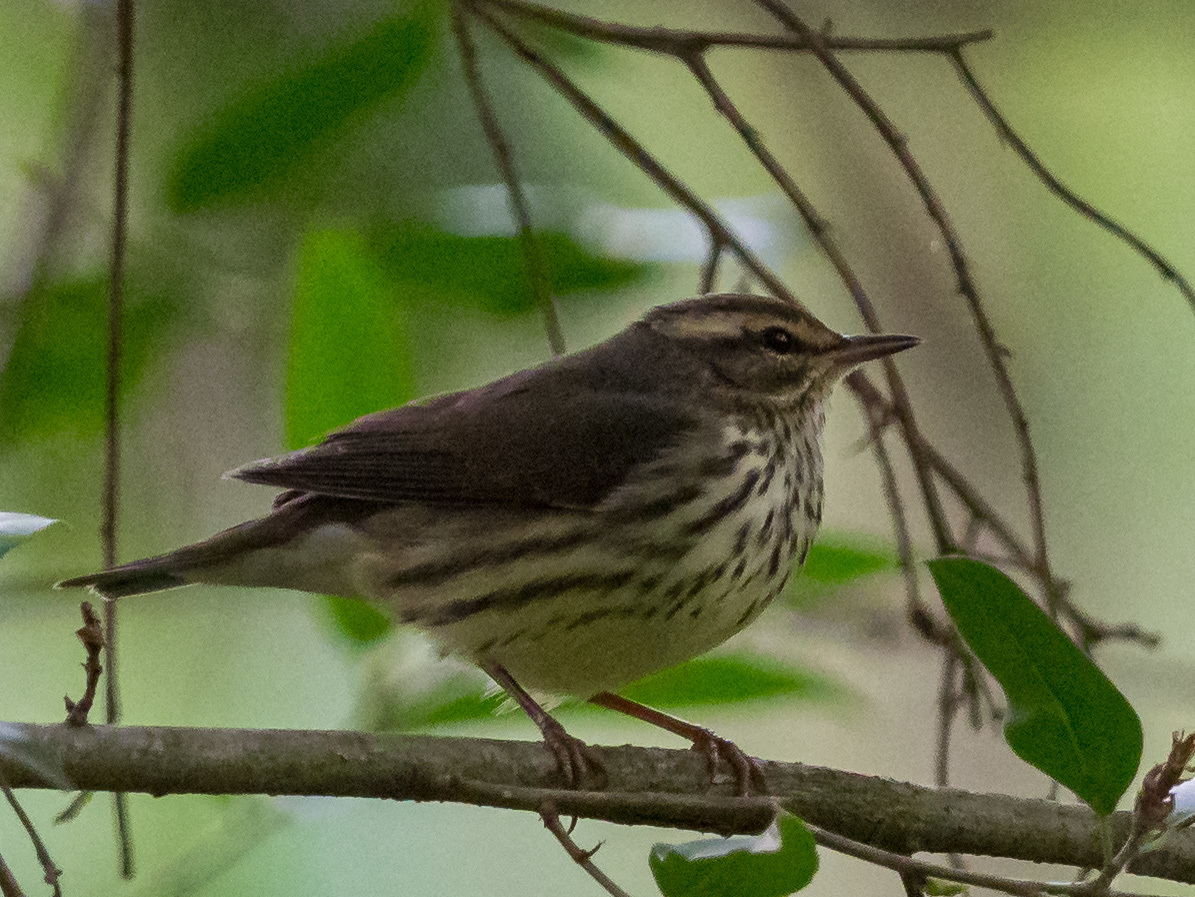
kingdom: Animalia
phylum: Chordata
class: Aves
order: Passeriformes
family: Parulidae
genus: Parkesia
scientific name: Parkesia noveboracensis
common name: Northern waterthrush
